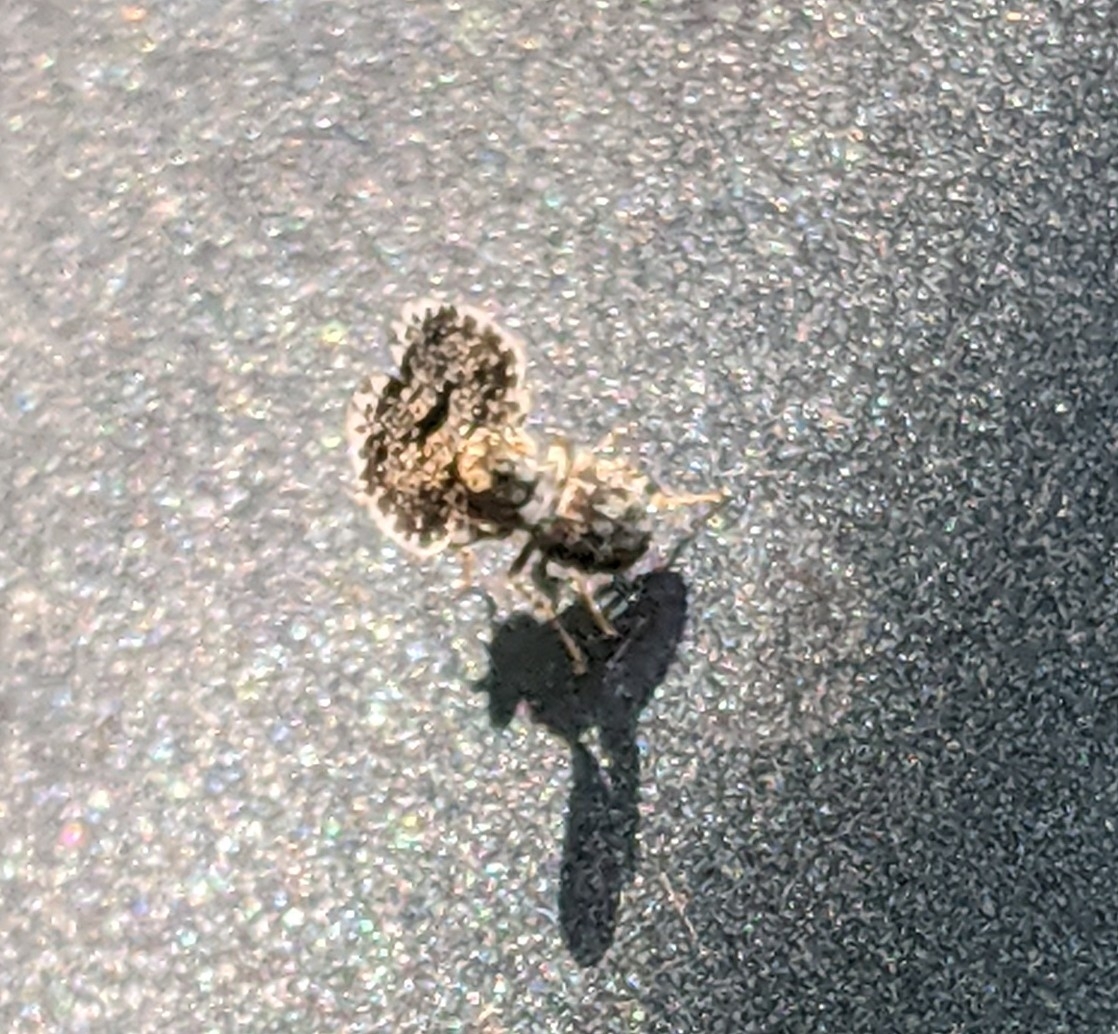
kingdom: Animalia
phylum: Arthropoda
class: Insecta
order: Diptera
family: Ulidiidae
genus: Callopistromyia
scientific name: Callopistromyia annulipes
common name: Peacock fly
